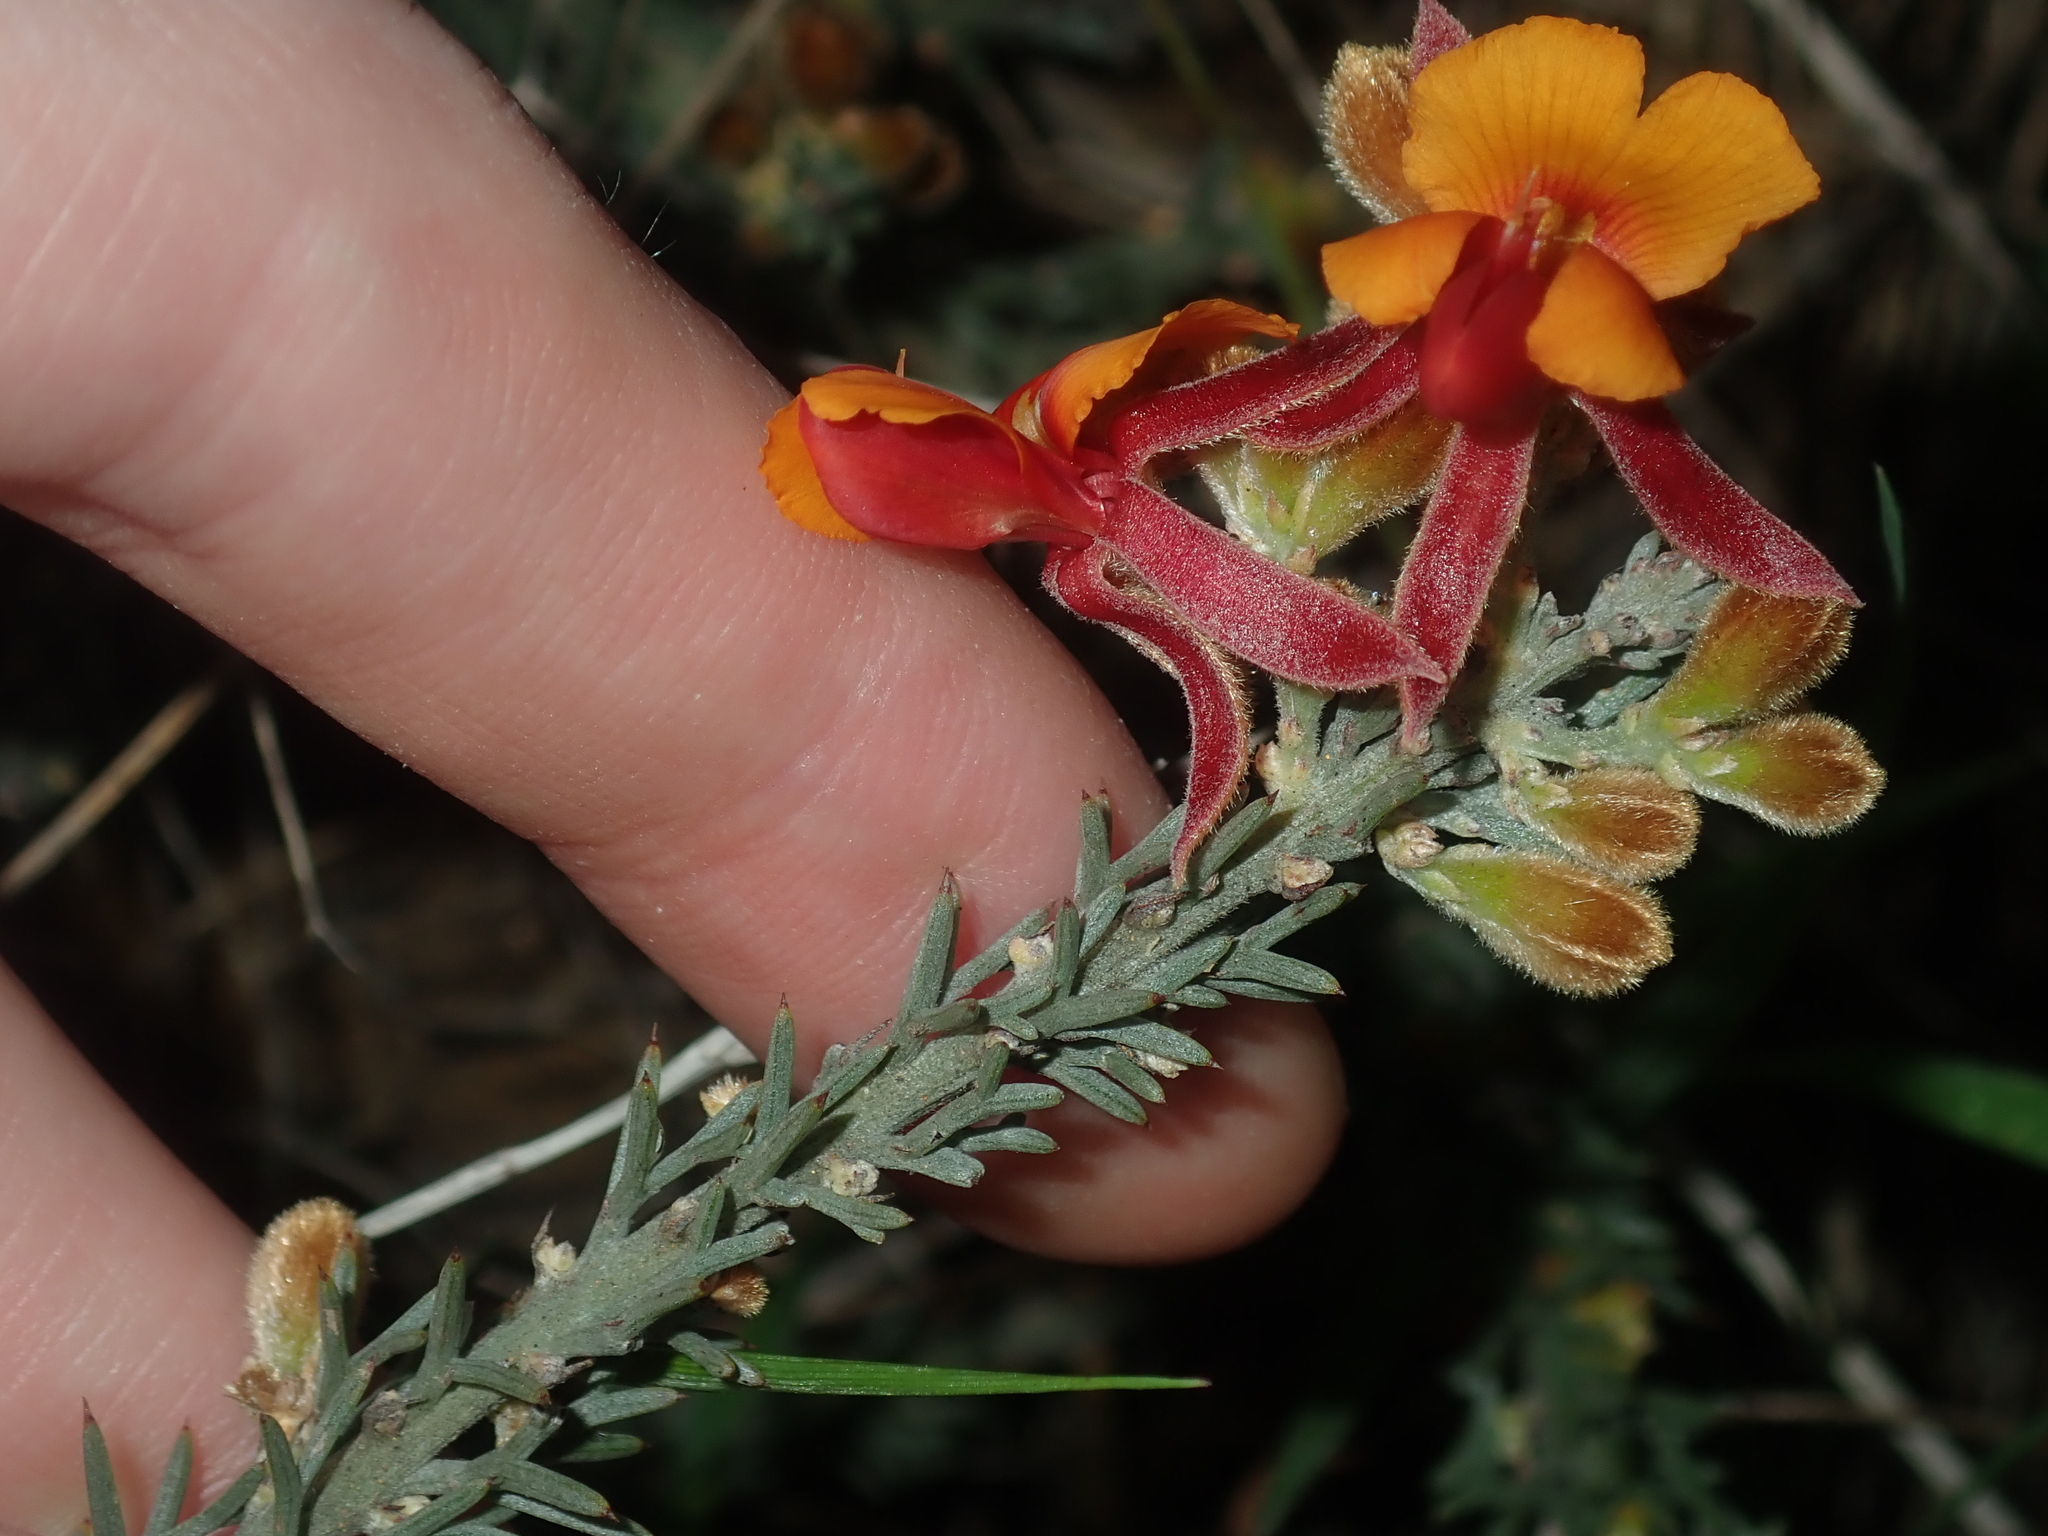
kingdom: Plantae
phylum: Tracheophyta
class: Magnoliopsida
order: Fabales
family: Fabaceae
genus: Jacksonia
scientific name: Jacksonia hakeoides
